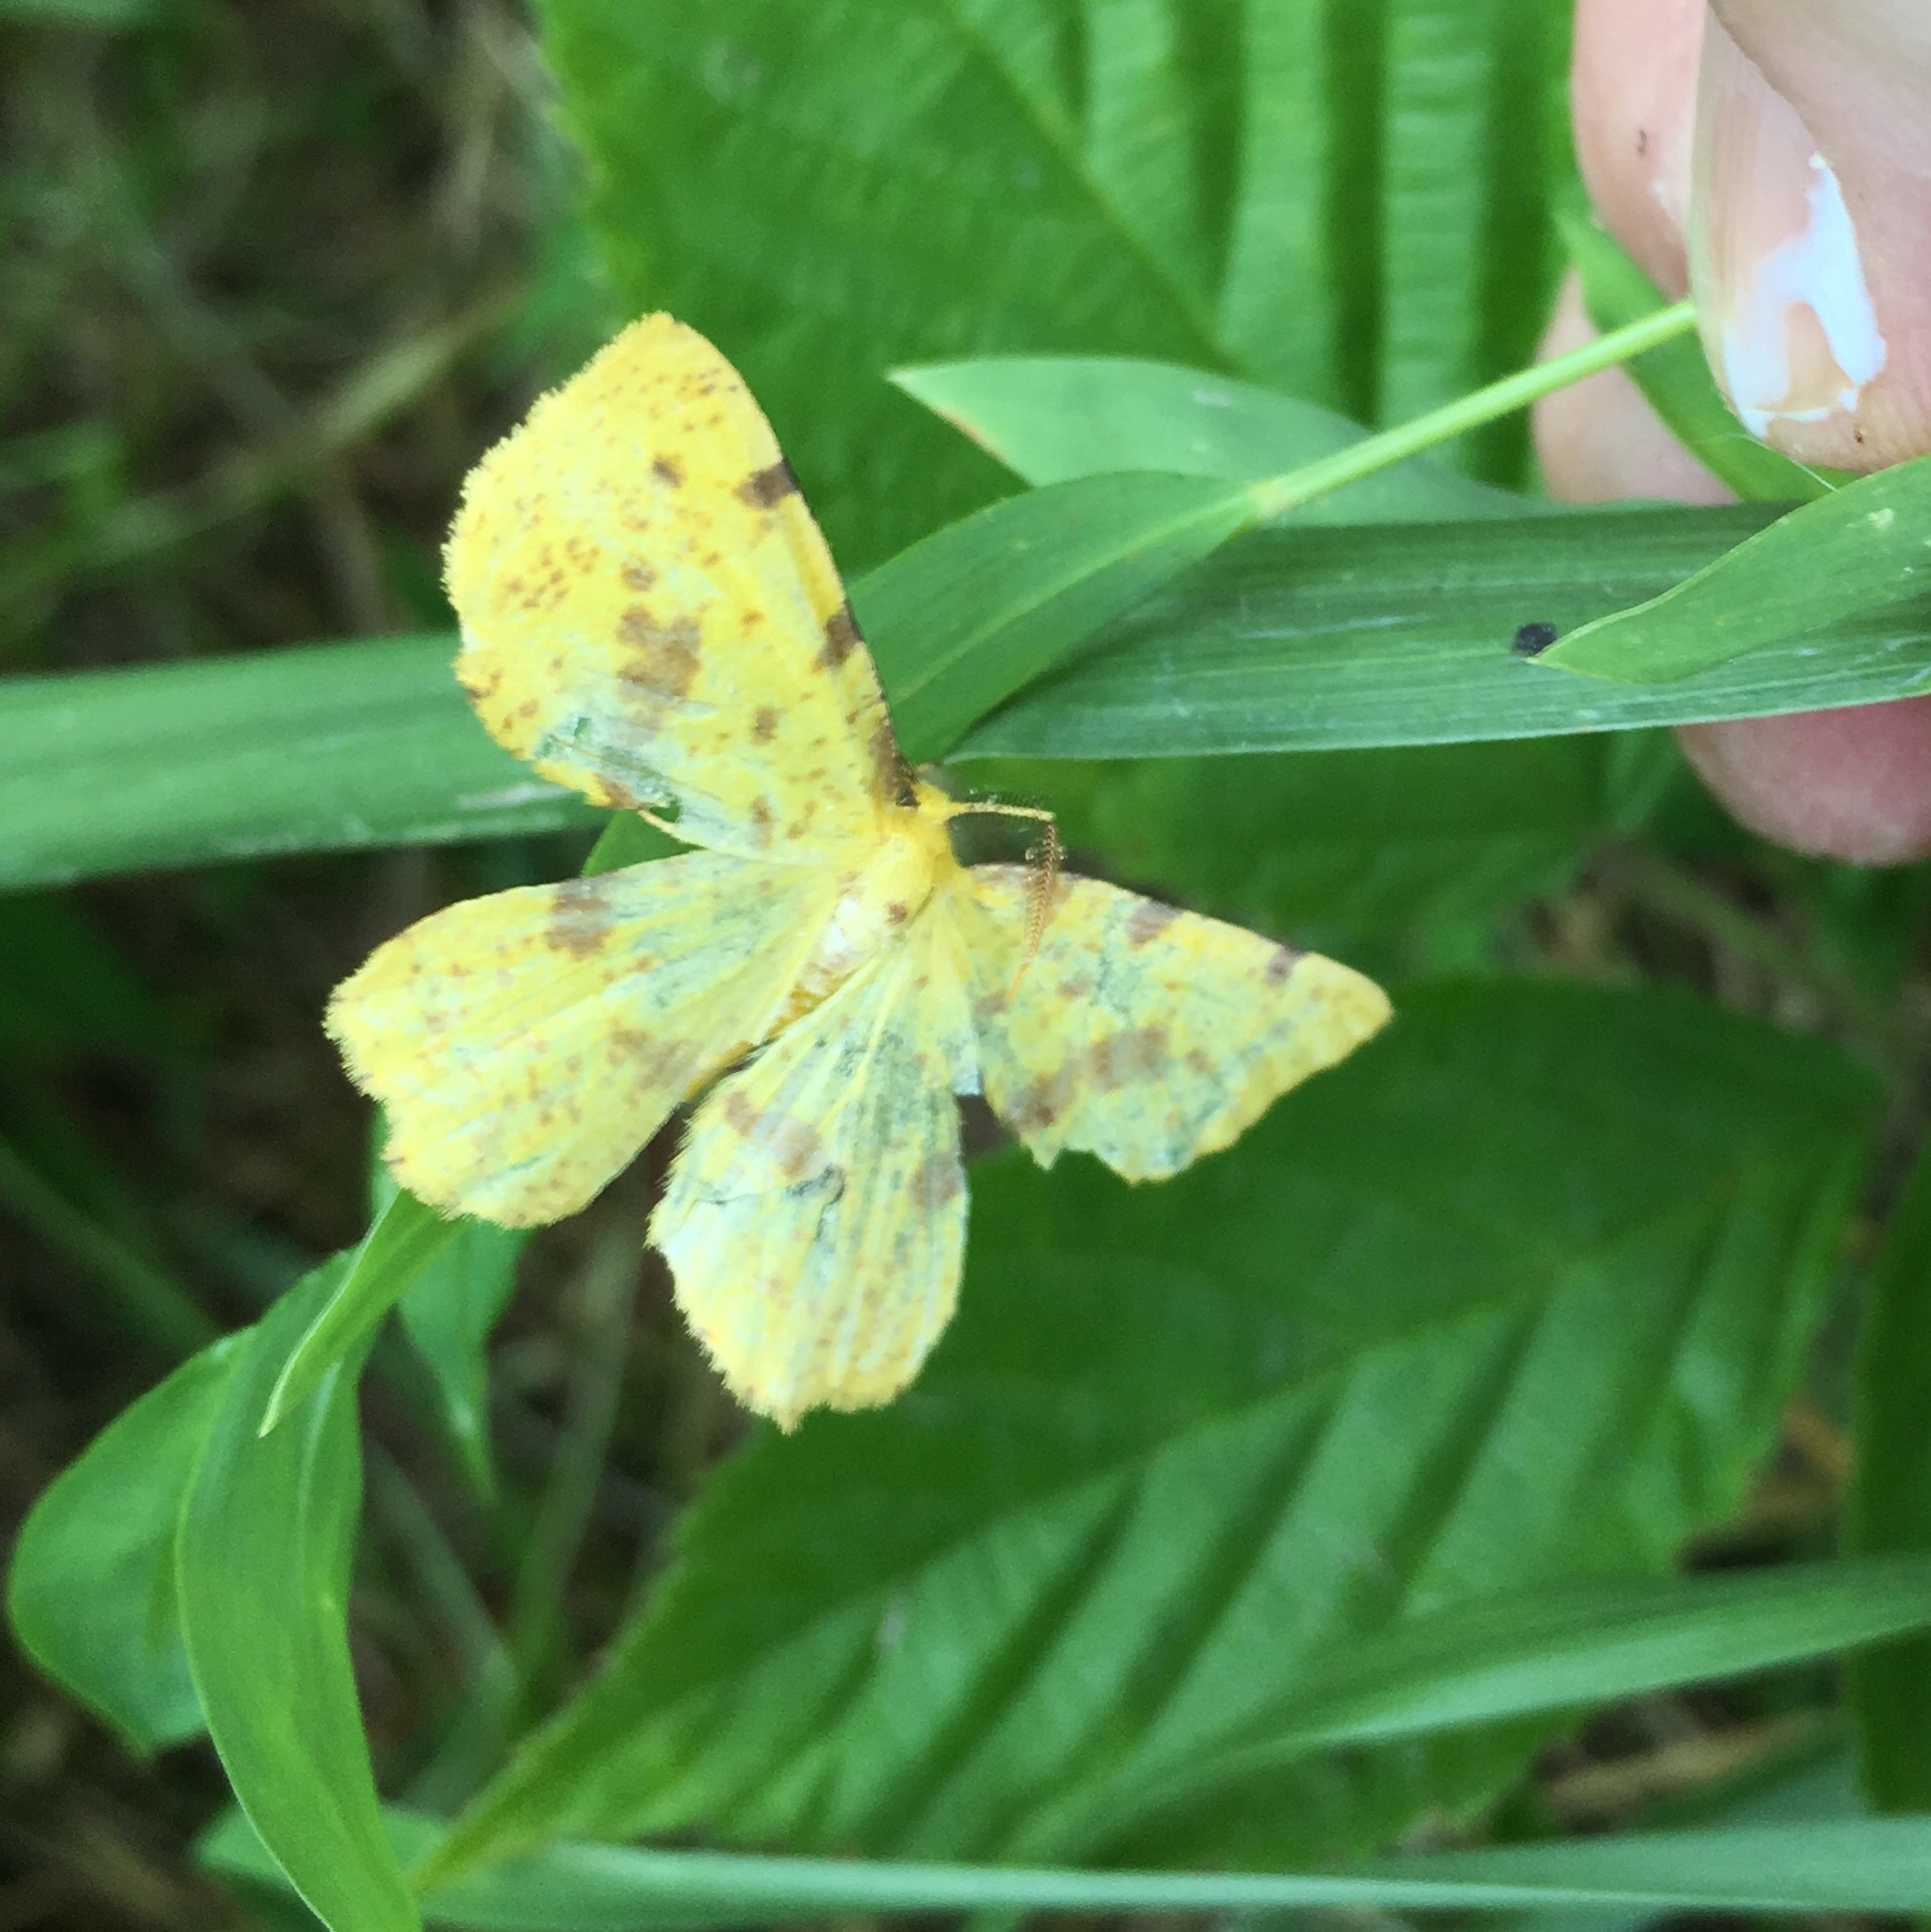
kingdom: Animalia
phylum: Arthropoda
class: Insecta
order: Lepidoptera
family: Geometridae
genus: Xanthotype
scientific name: Xanthotype
